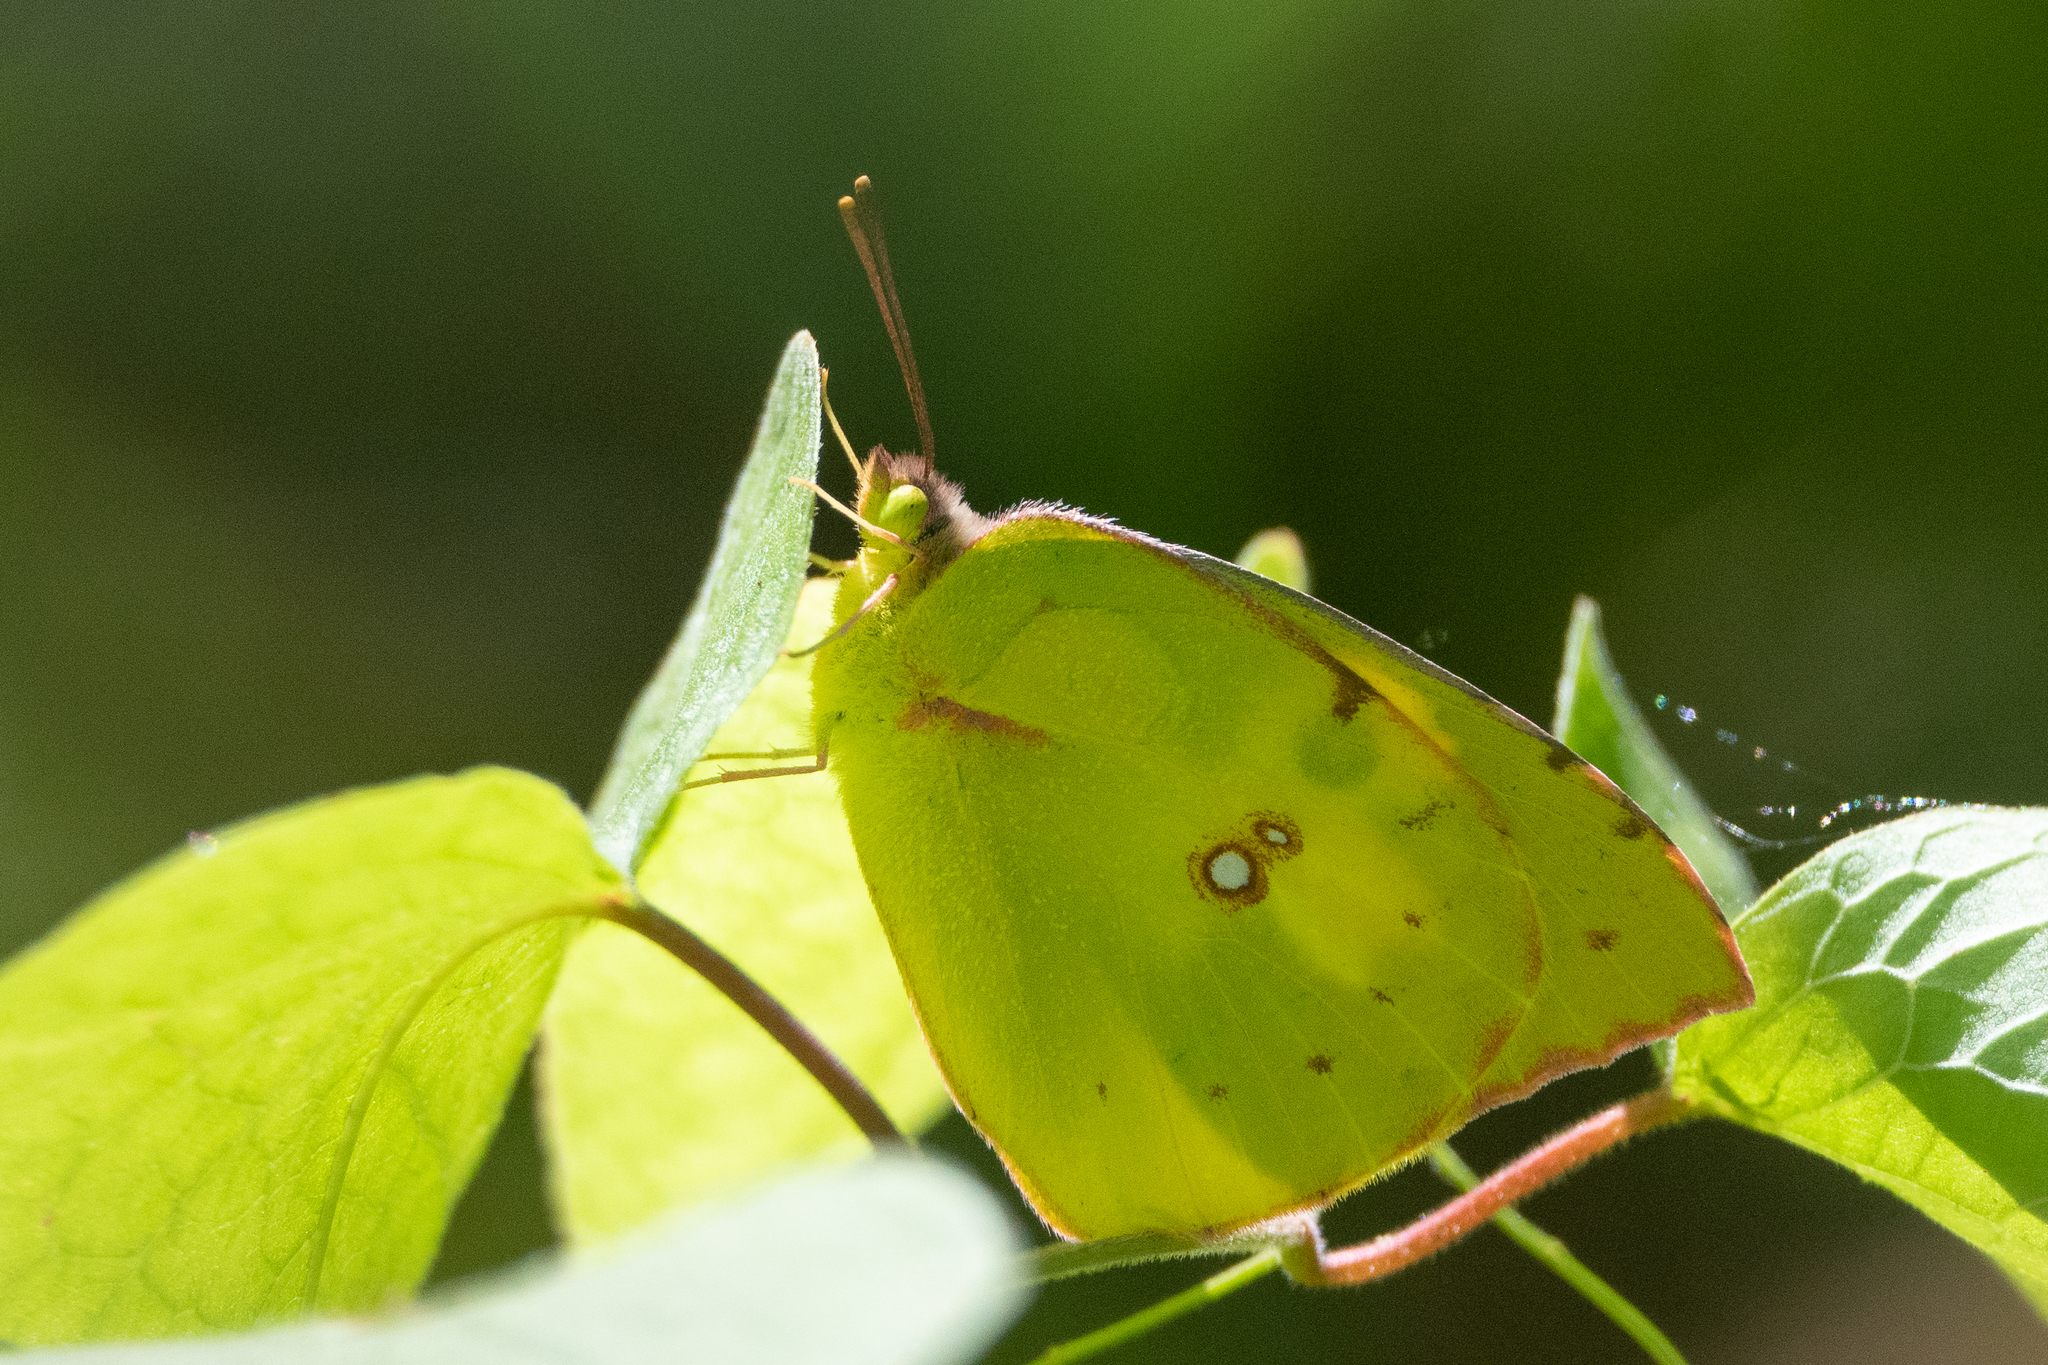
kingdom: Animalia
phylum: Arthropoda
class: Insecta
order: Lepidoptera
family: Pieridae
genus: Zerene
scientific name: Zerene cesonia
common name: Southern dogface
